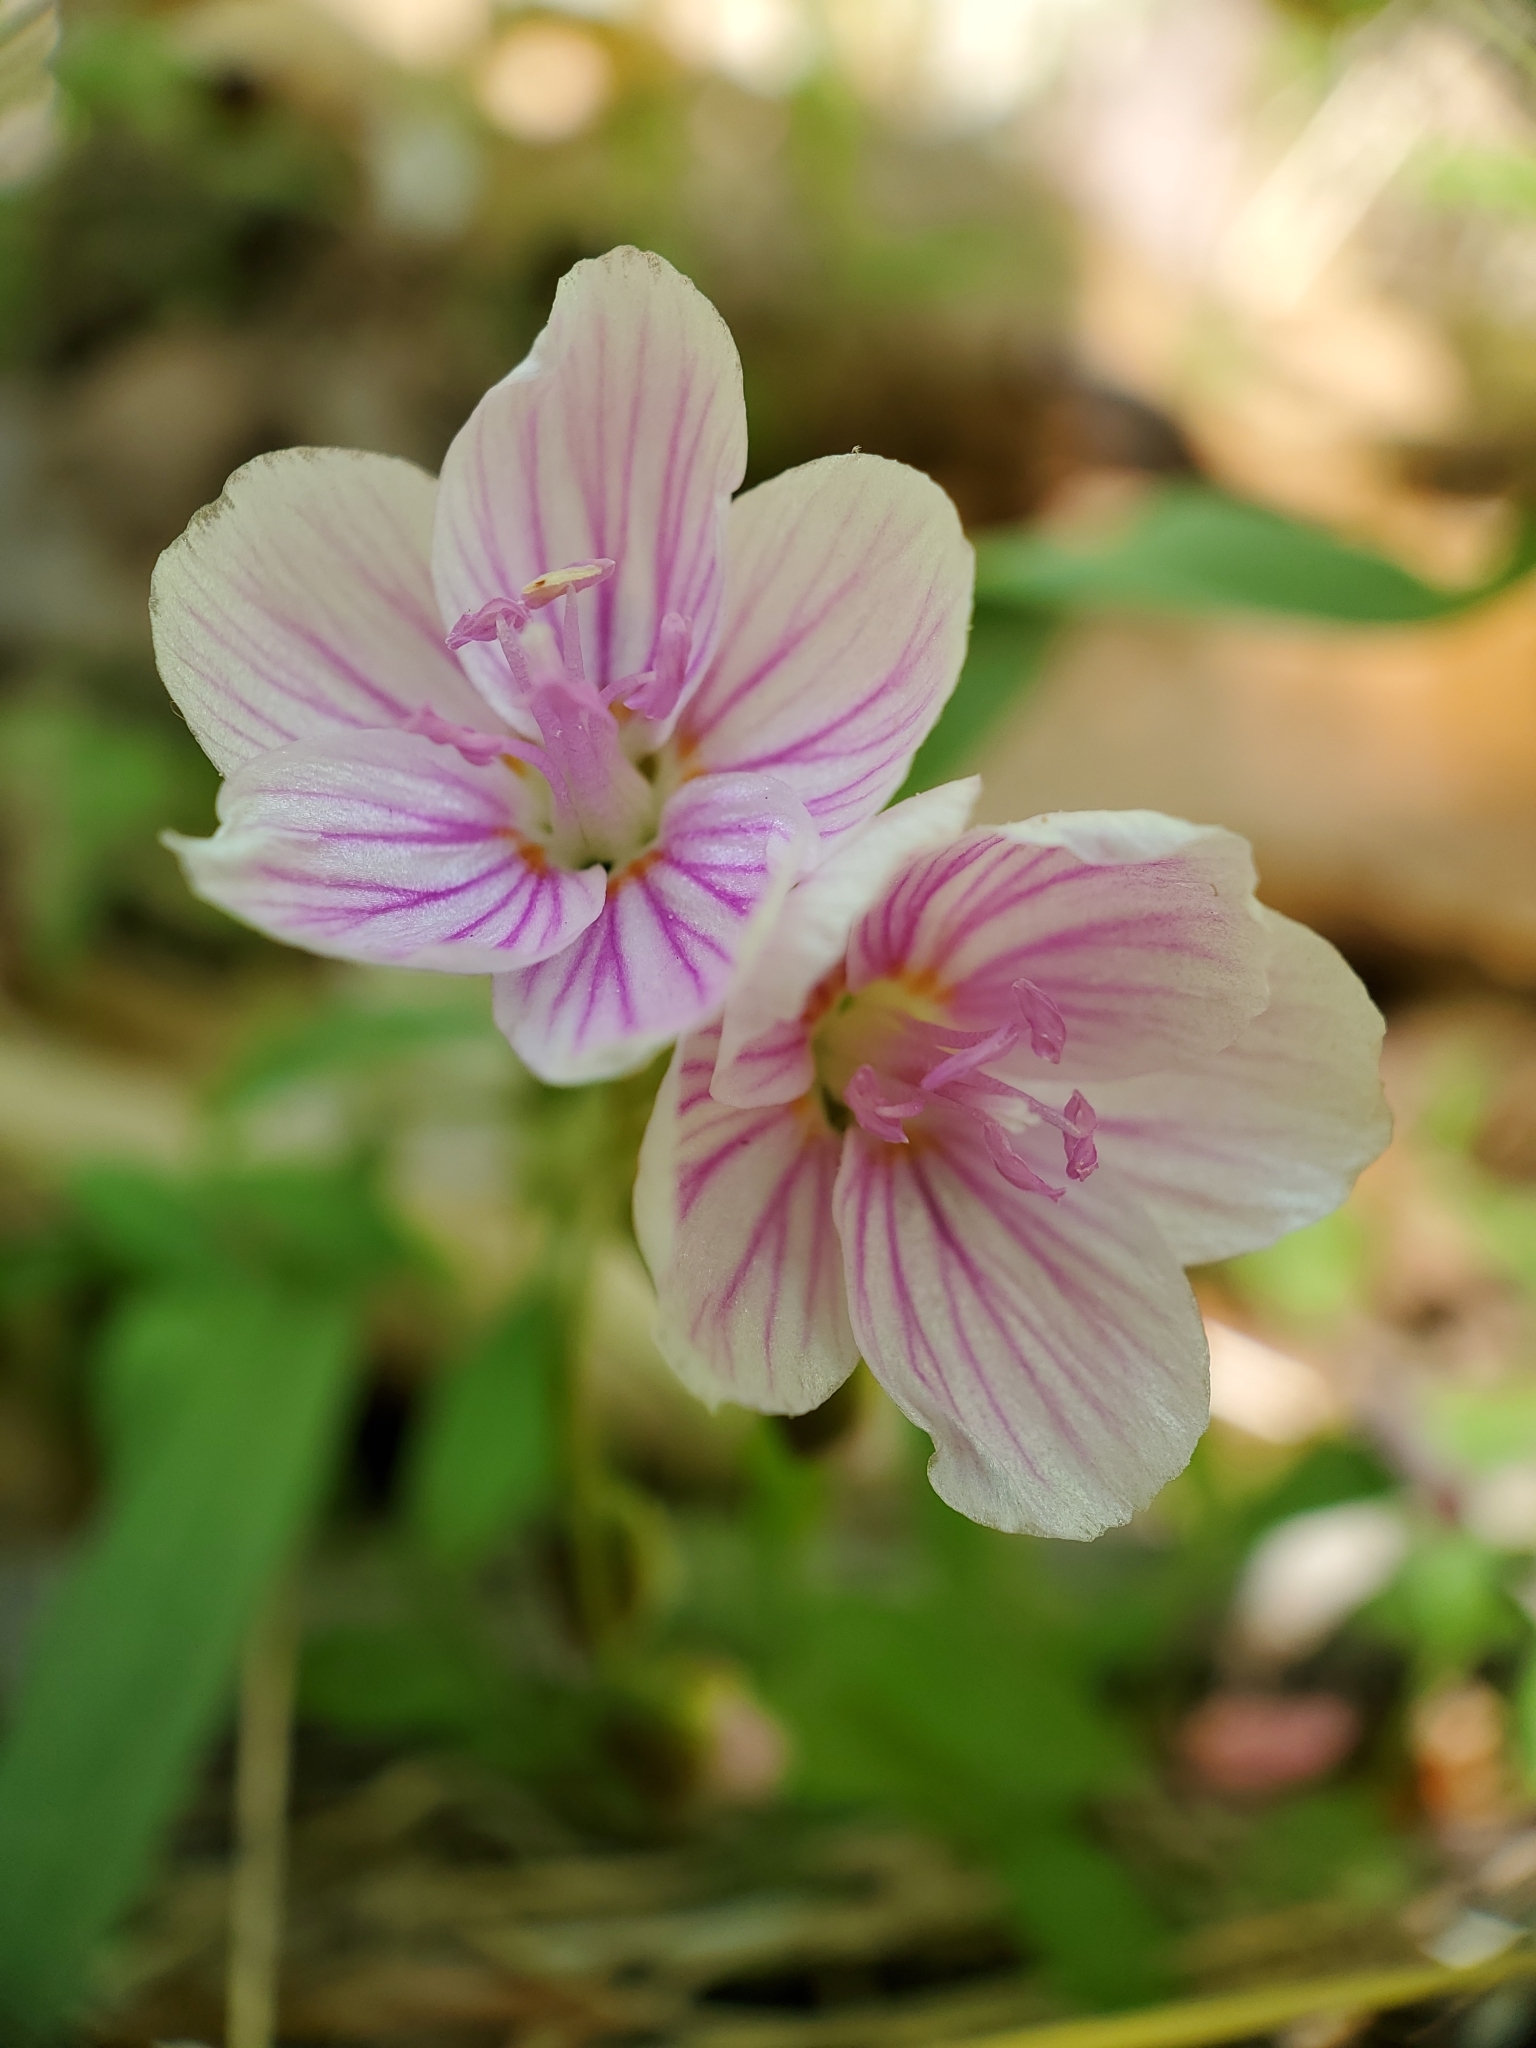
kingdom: Plantae
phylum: Tracheophyta
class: Magnoliopsida
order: Caryophyllales
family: Montiaceae
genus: Claytonia
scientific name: Claytonia virginica
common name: Virginia springbeauty
